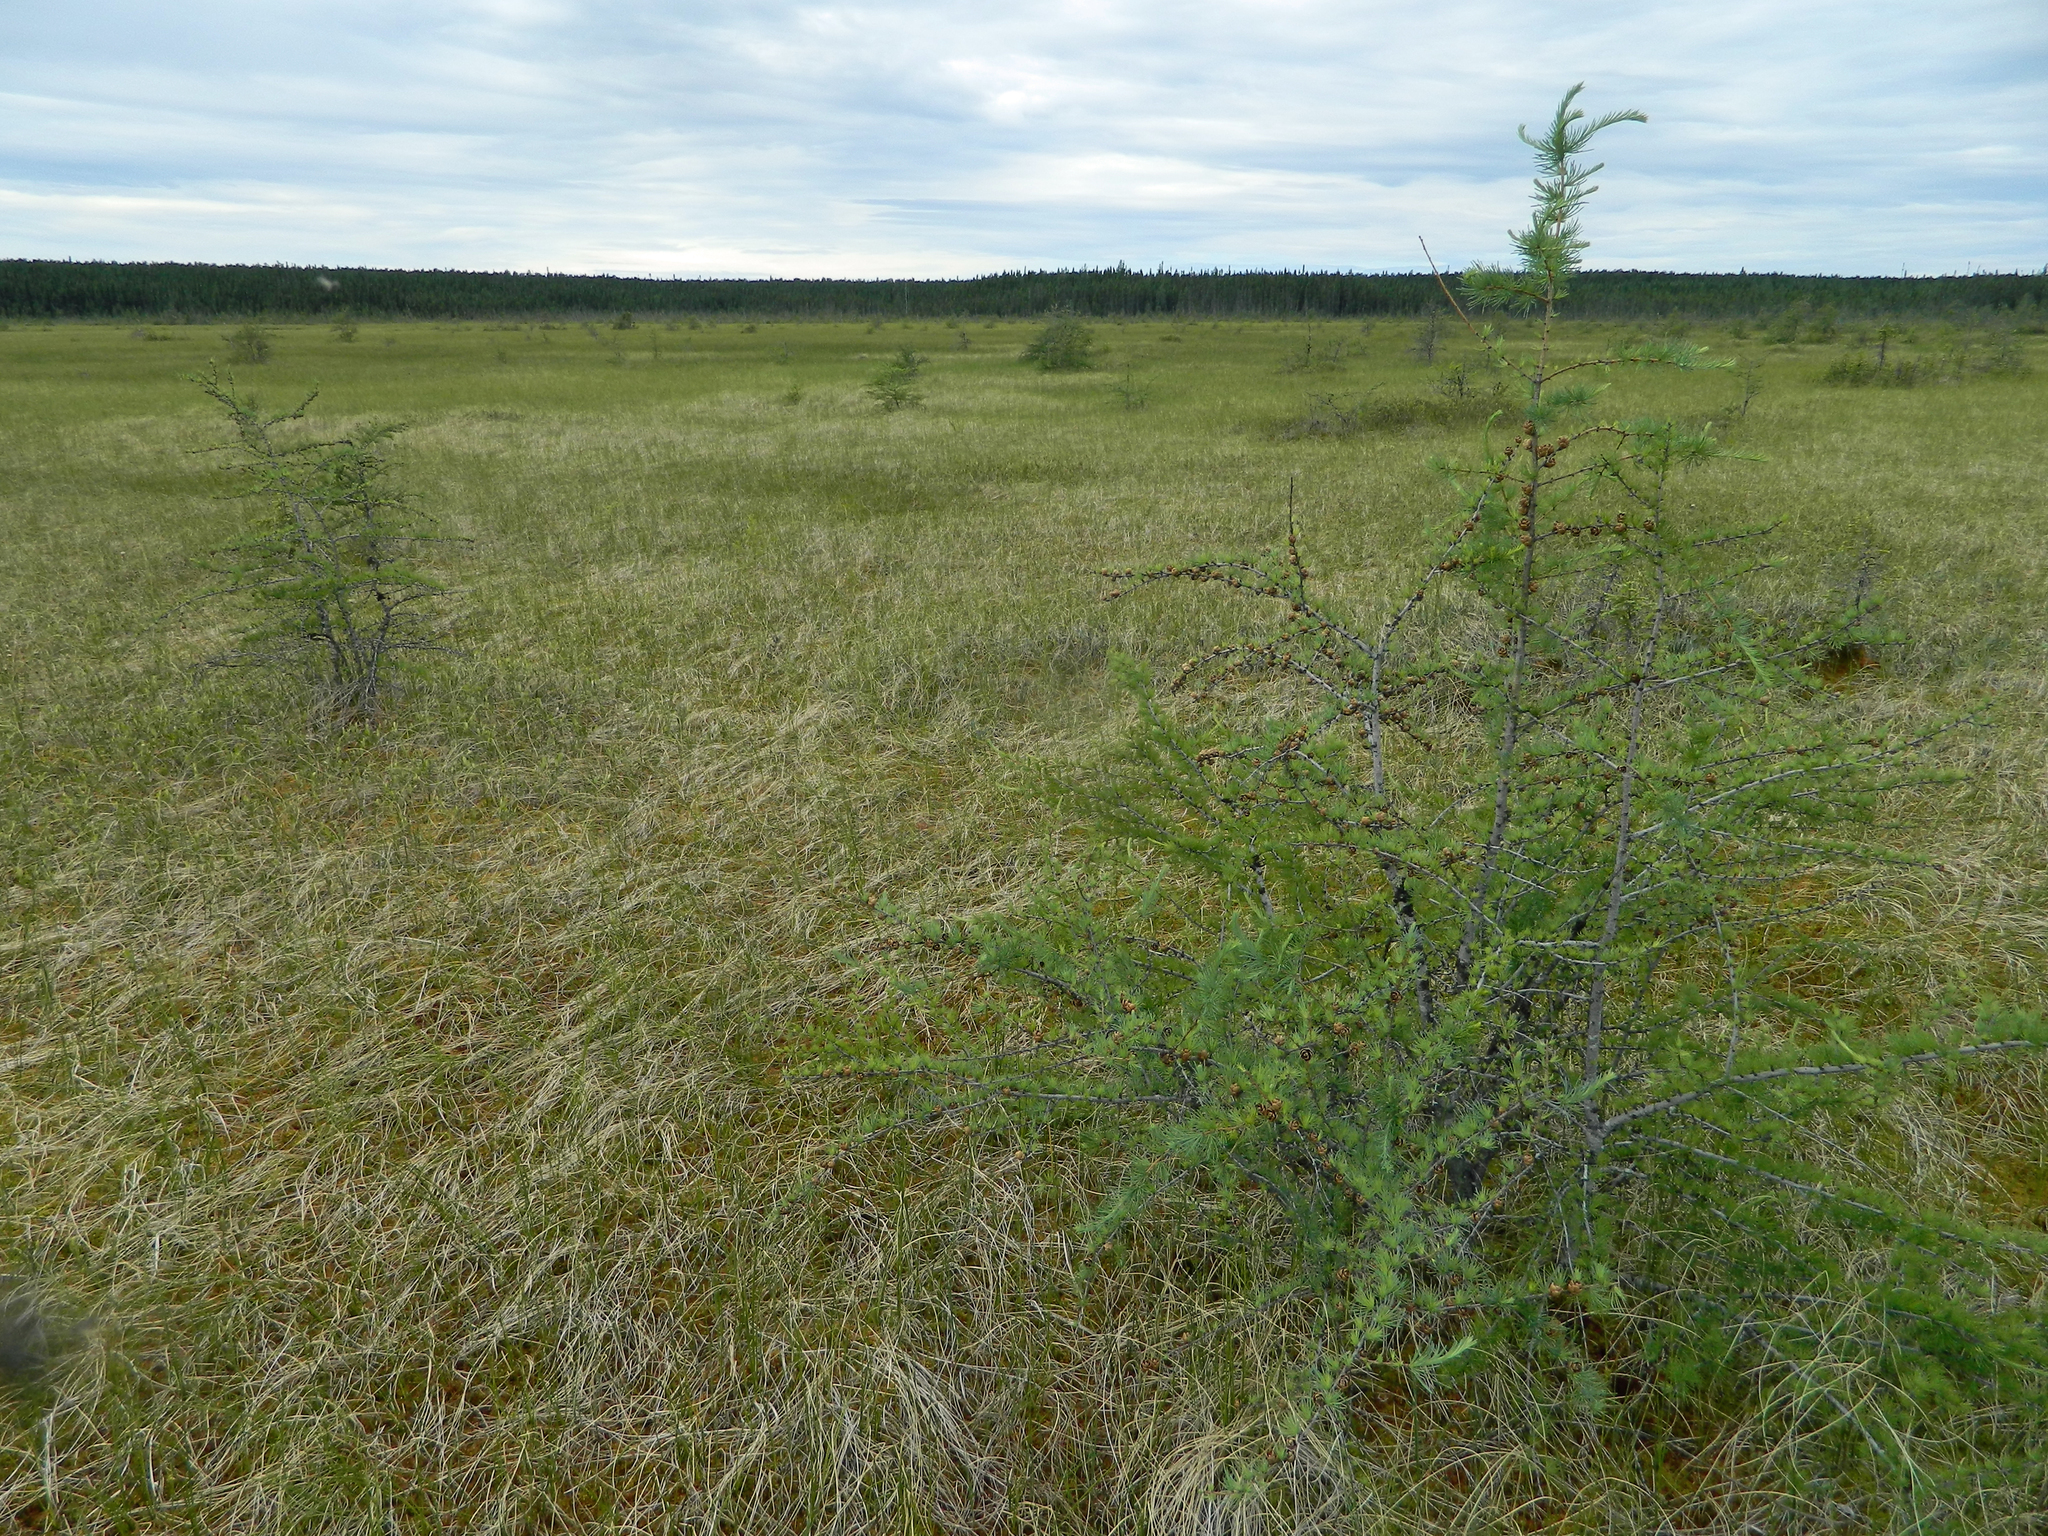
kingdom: Plantae
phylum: Tracheophyta
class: Pinopsida
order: Pinales
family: Pinaceae
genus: Larix
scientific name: Larix laricina
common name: American larch
